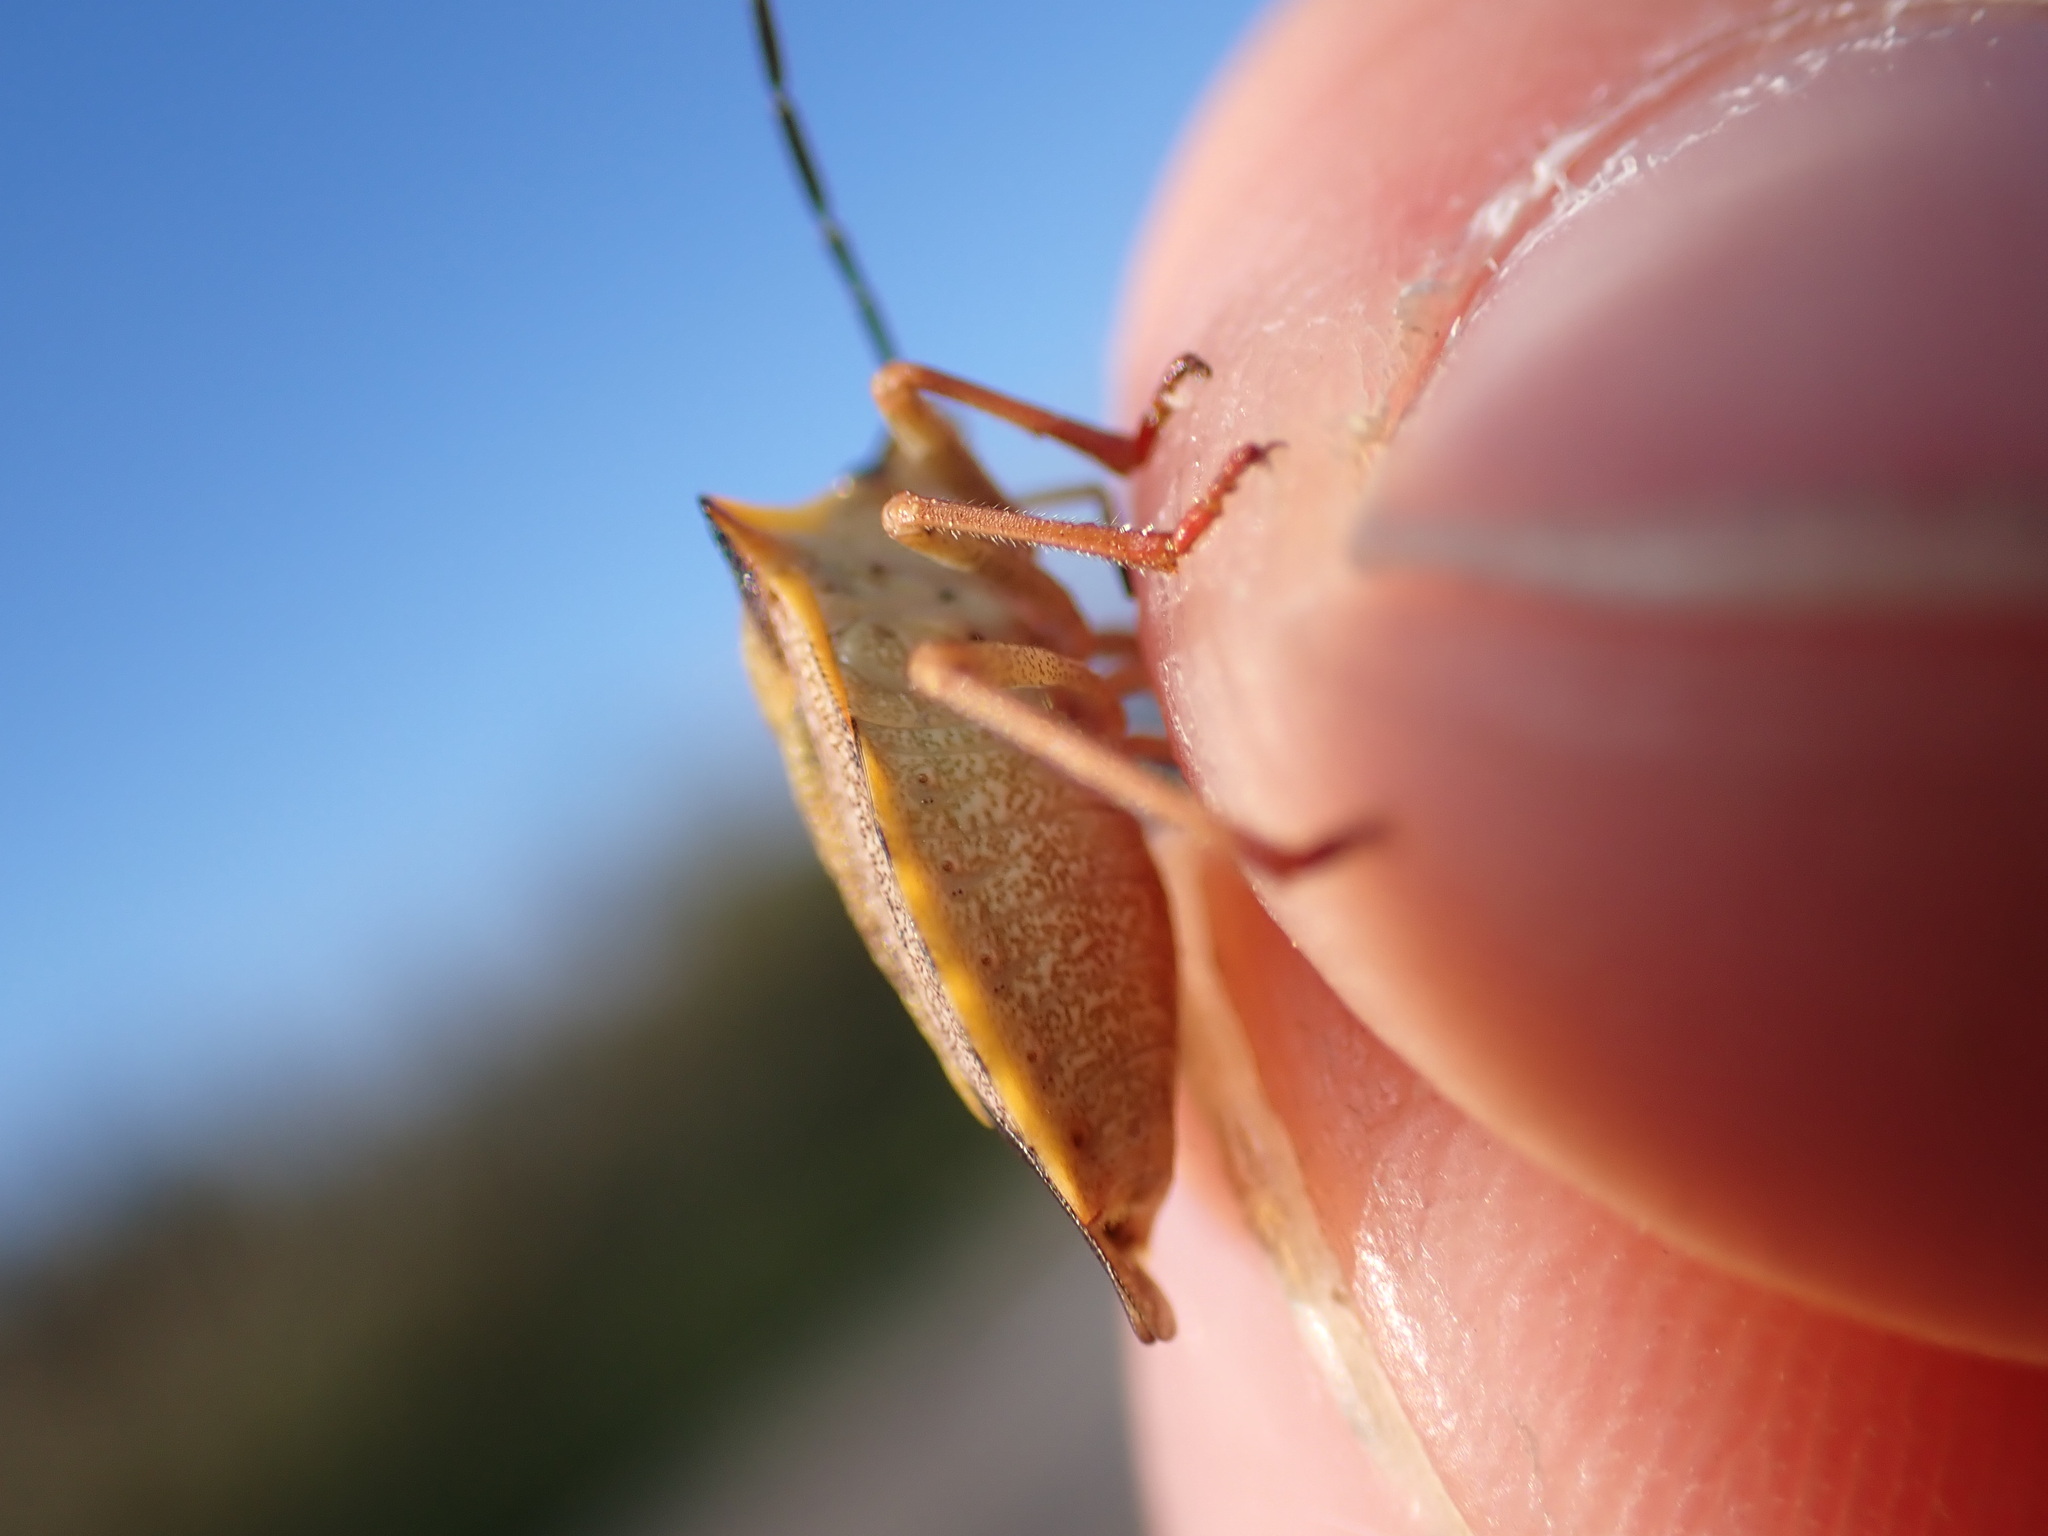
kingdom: Animalia
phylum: Arthropoda
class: Insecta
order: Hemiptera
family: Pentatomidae
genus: Carpocoris
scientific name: Carpocoris mediterraneus
